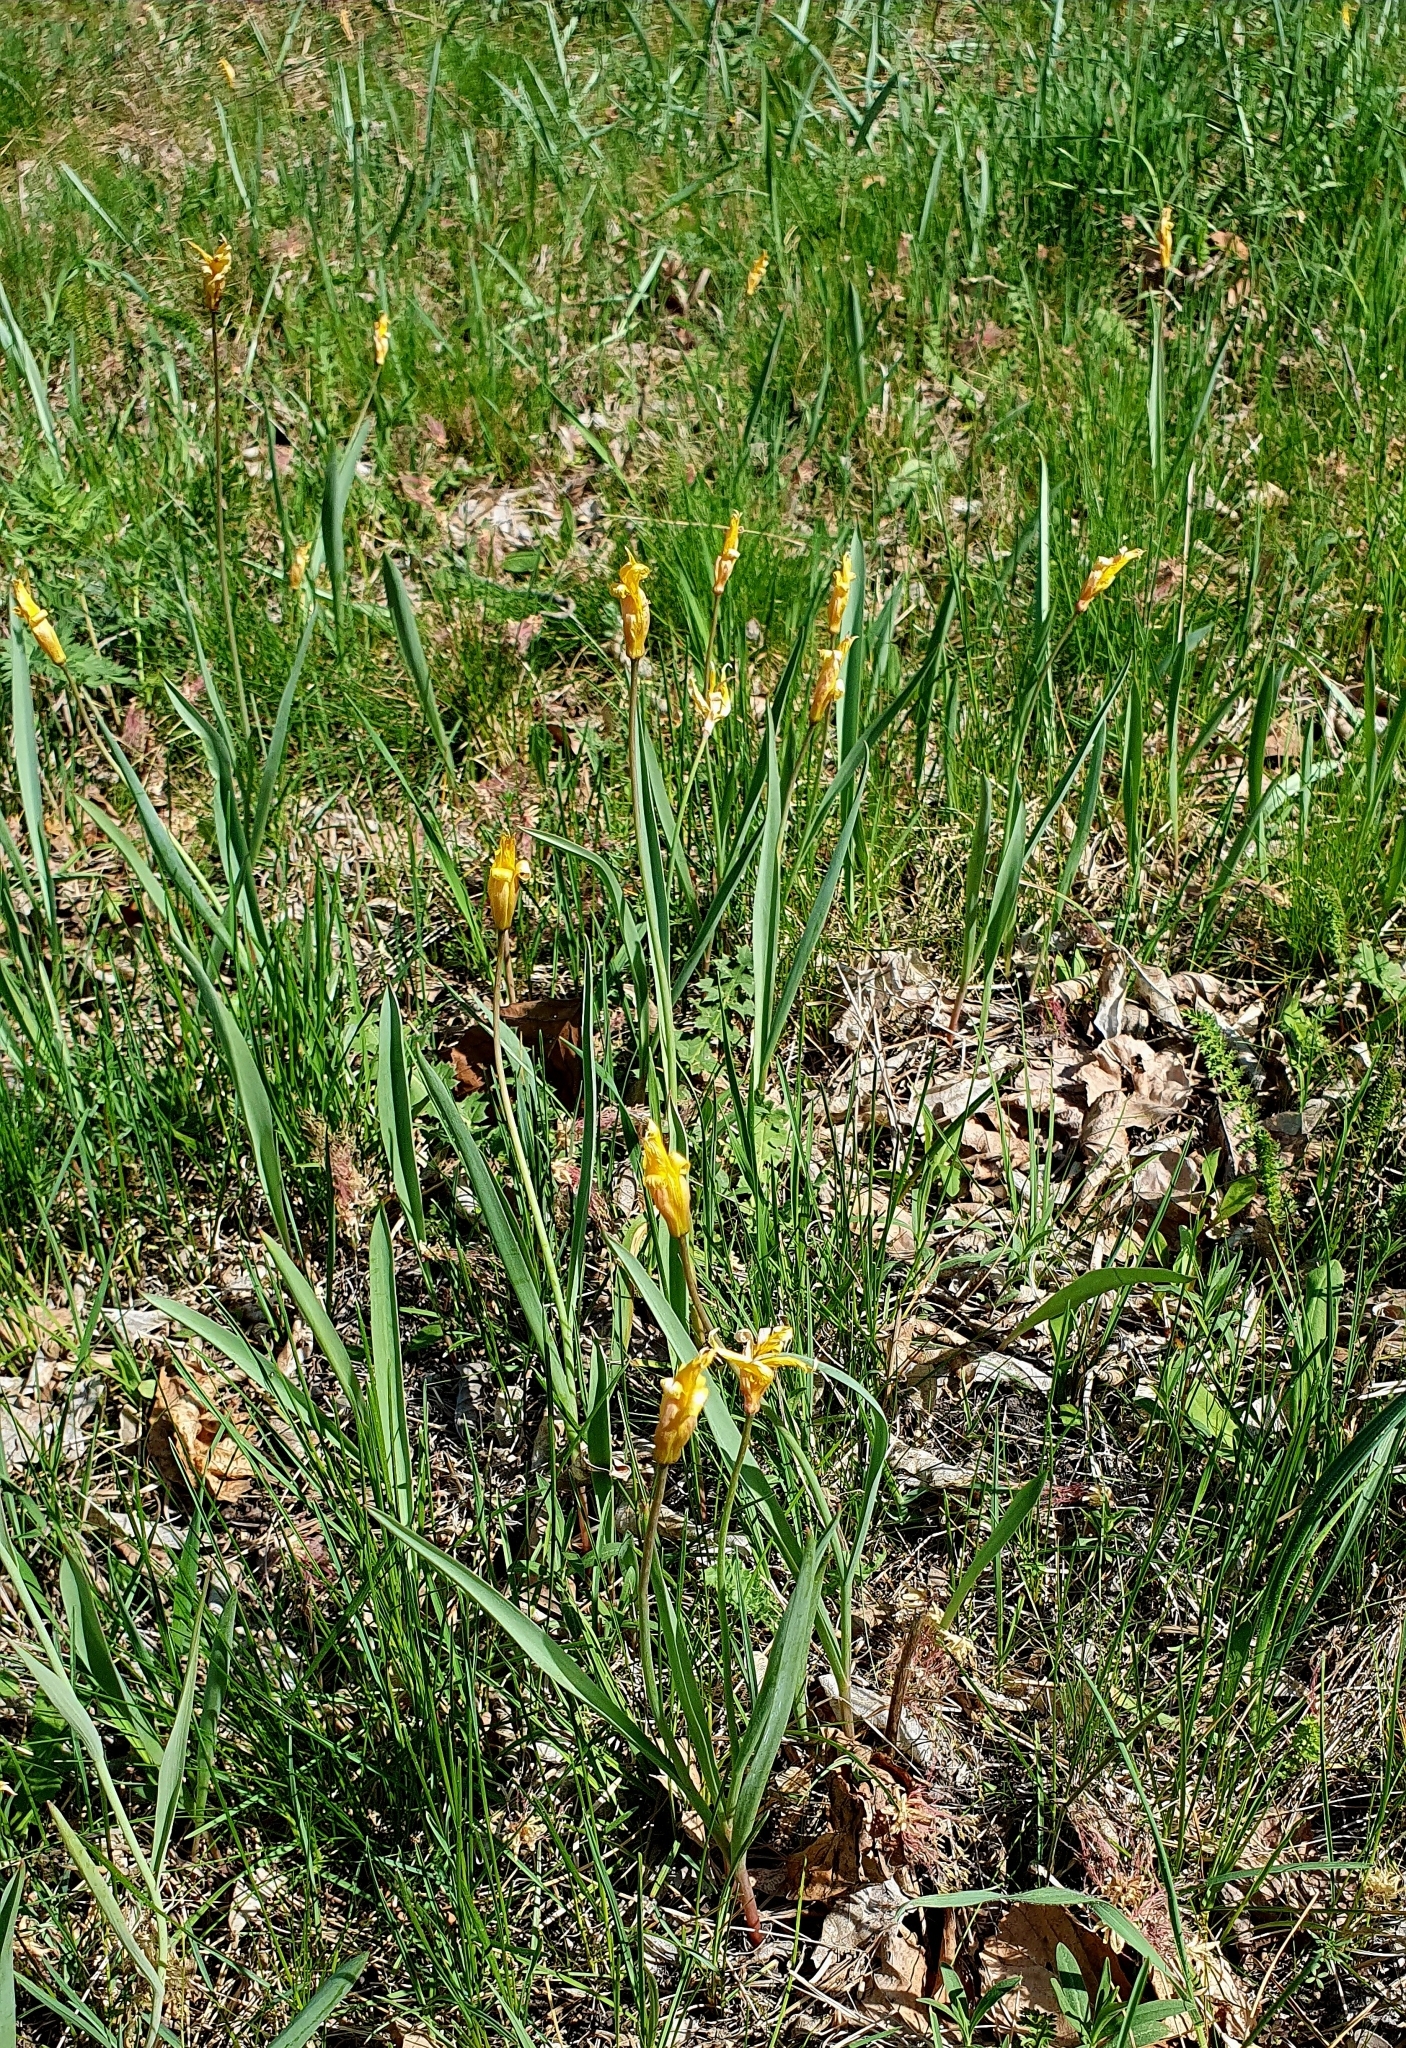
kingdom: Plantae
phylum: Tracheophyta
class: Liliopsida
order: Liliales
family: Liliaceae
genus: Tulipa
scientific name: Tulipa sylvestris
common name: Wild tulip
